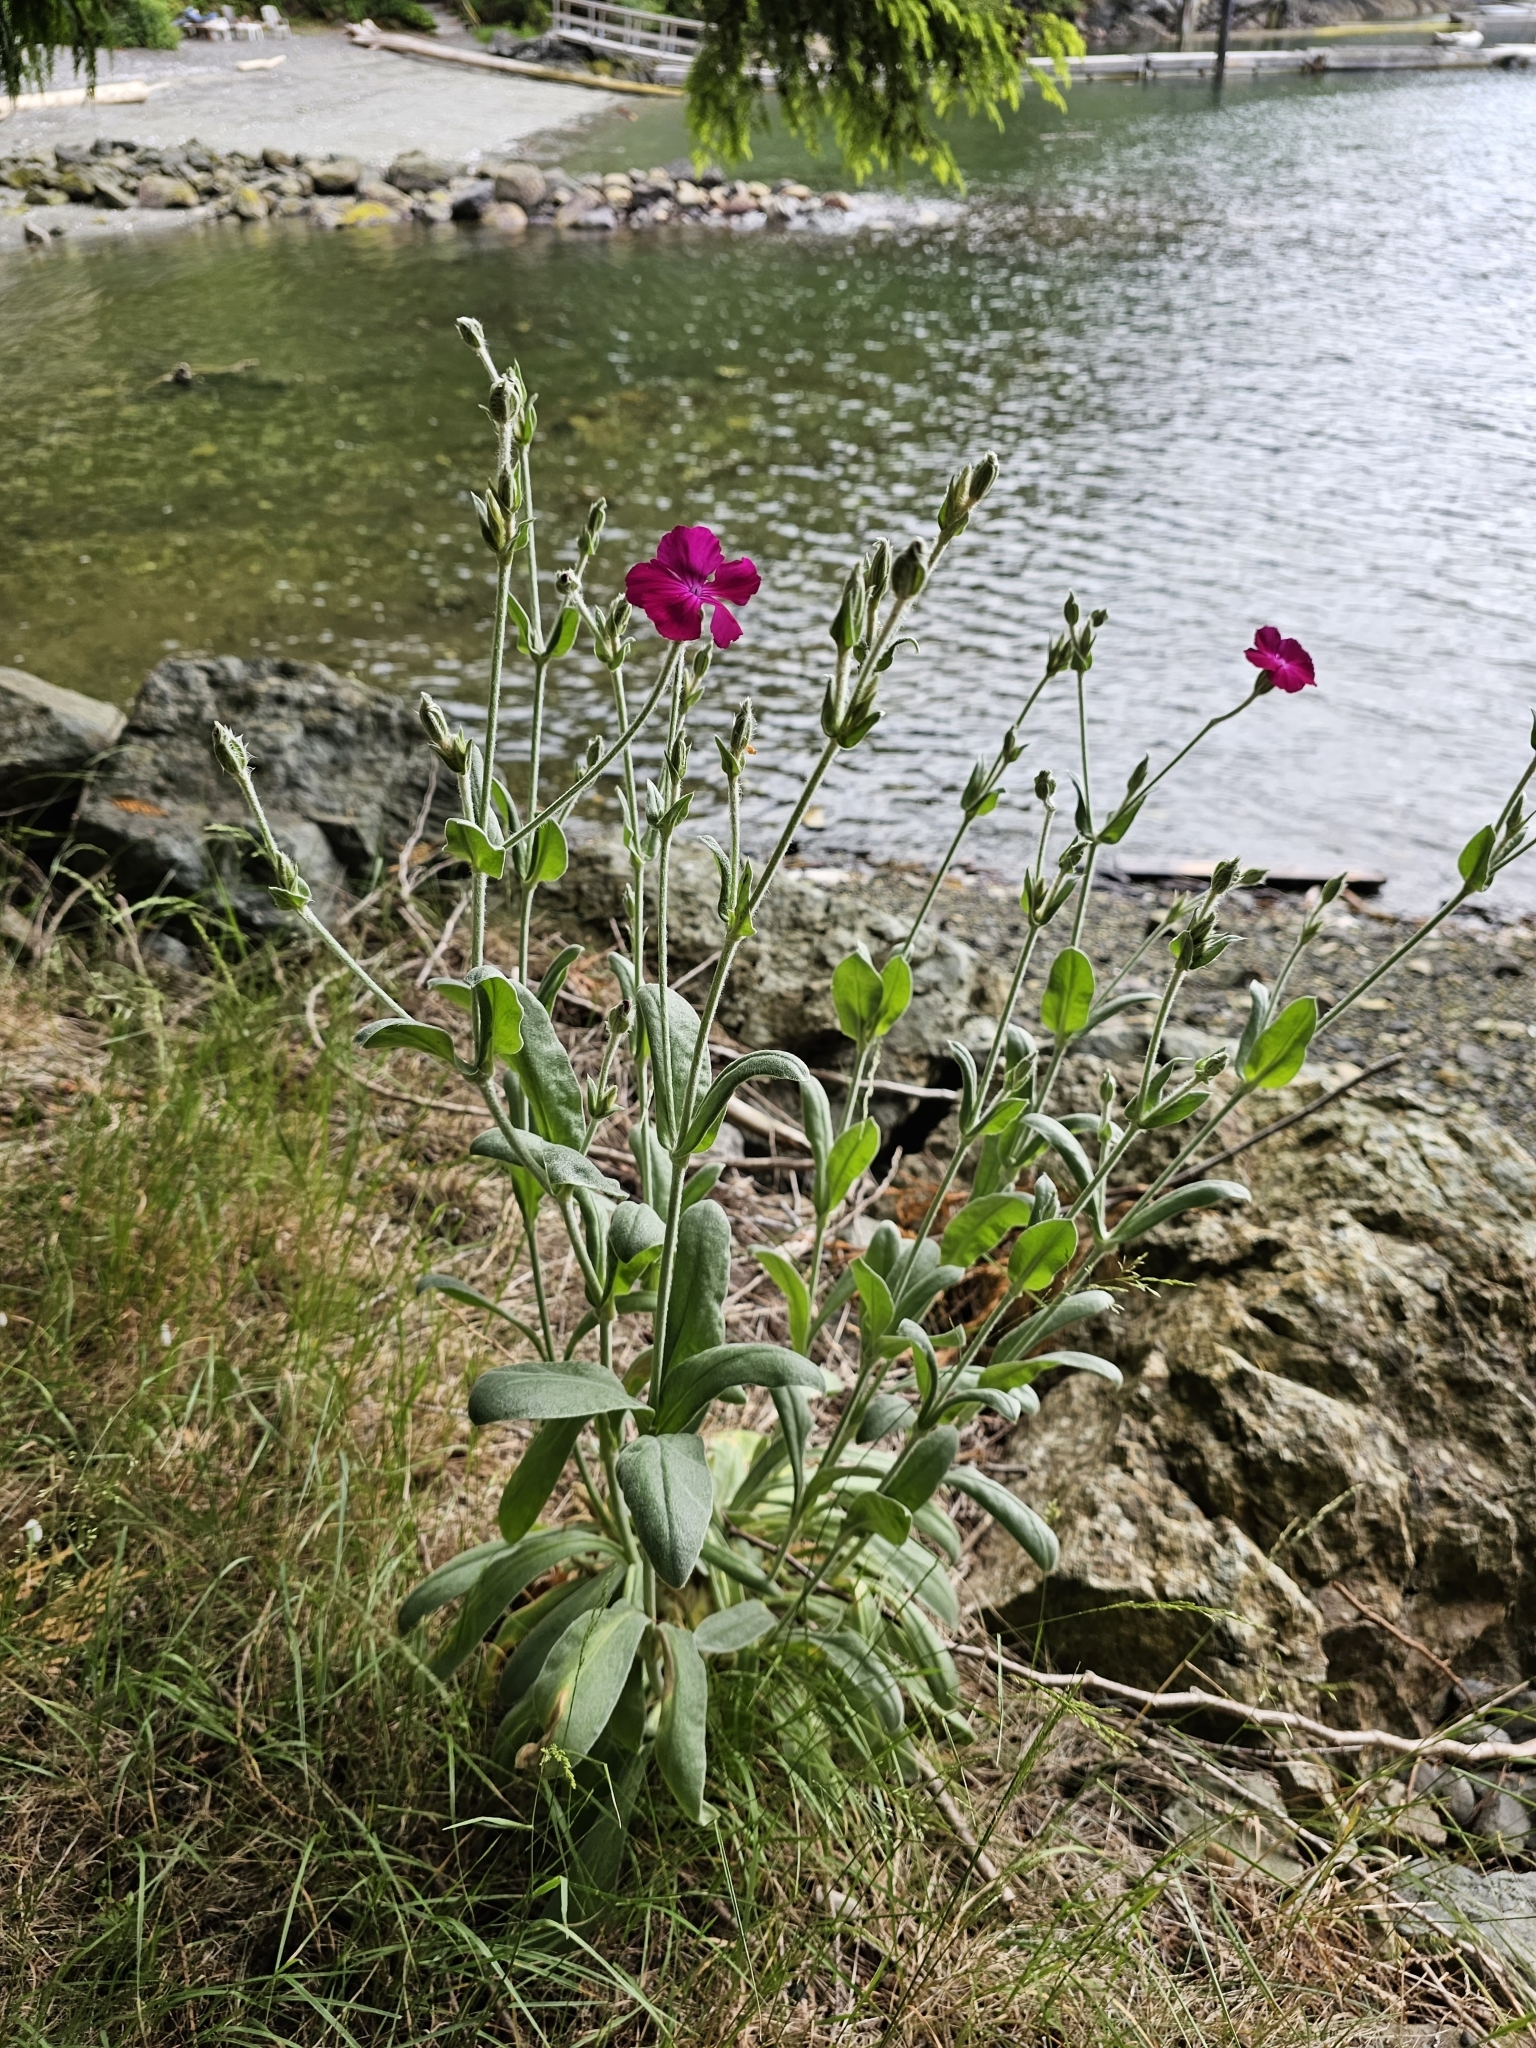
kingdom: Plantae
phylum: Tracheophyta
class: Magnoliopsida
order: Caryophyllales
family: Caryophyllaceae
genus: Silene
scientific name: Silene coronaria
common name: Rose campion
